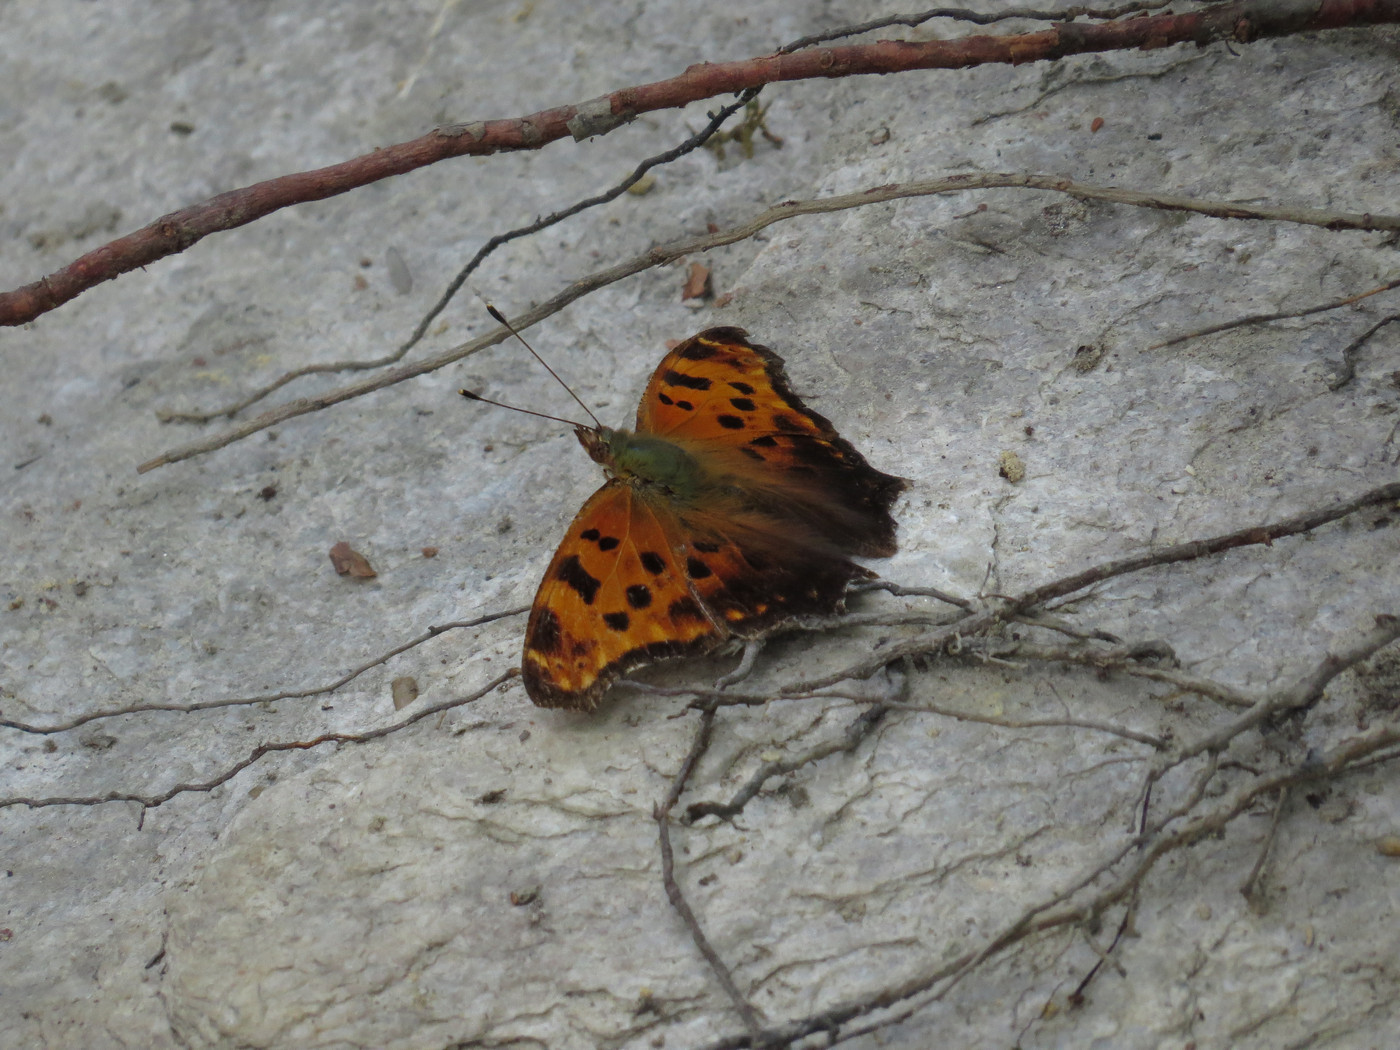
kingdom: Animalia
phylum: Arthropoda
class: Insecta
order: Lepidoptera
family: Nymphalidae
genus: Polygonia
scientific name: Polygonia comma
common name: Eastern comma
